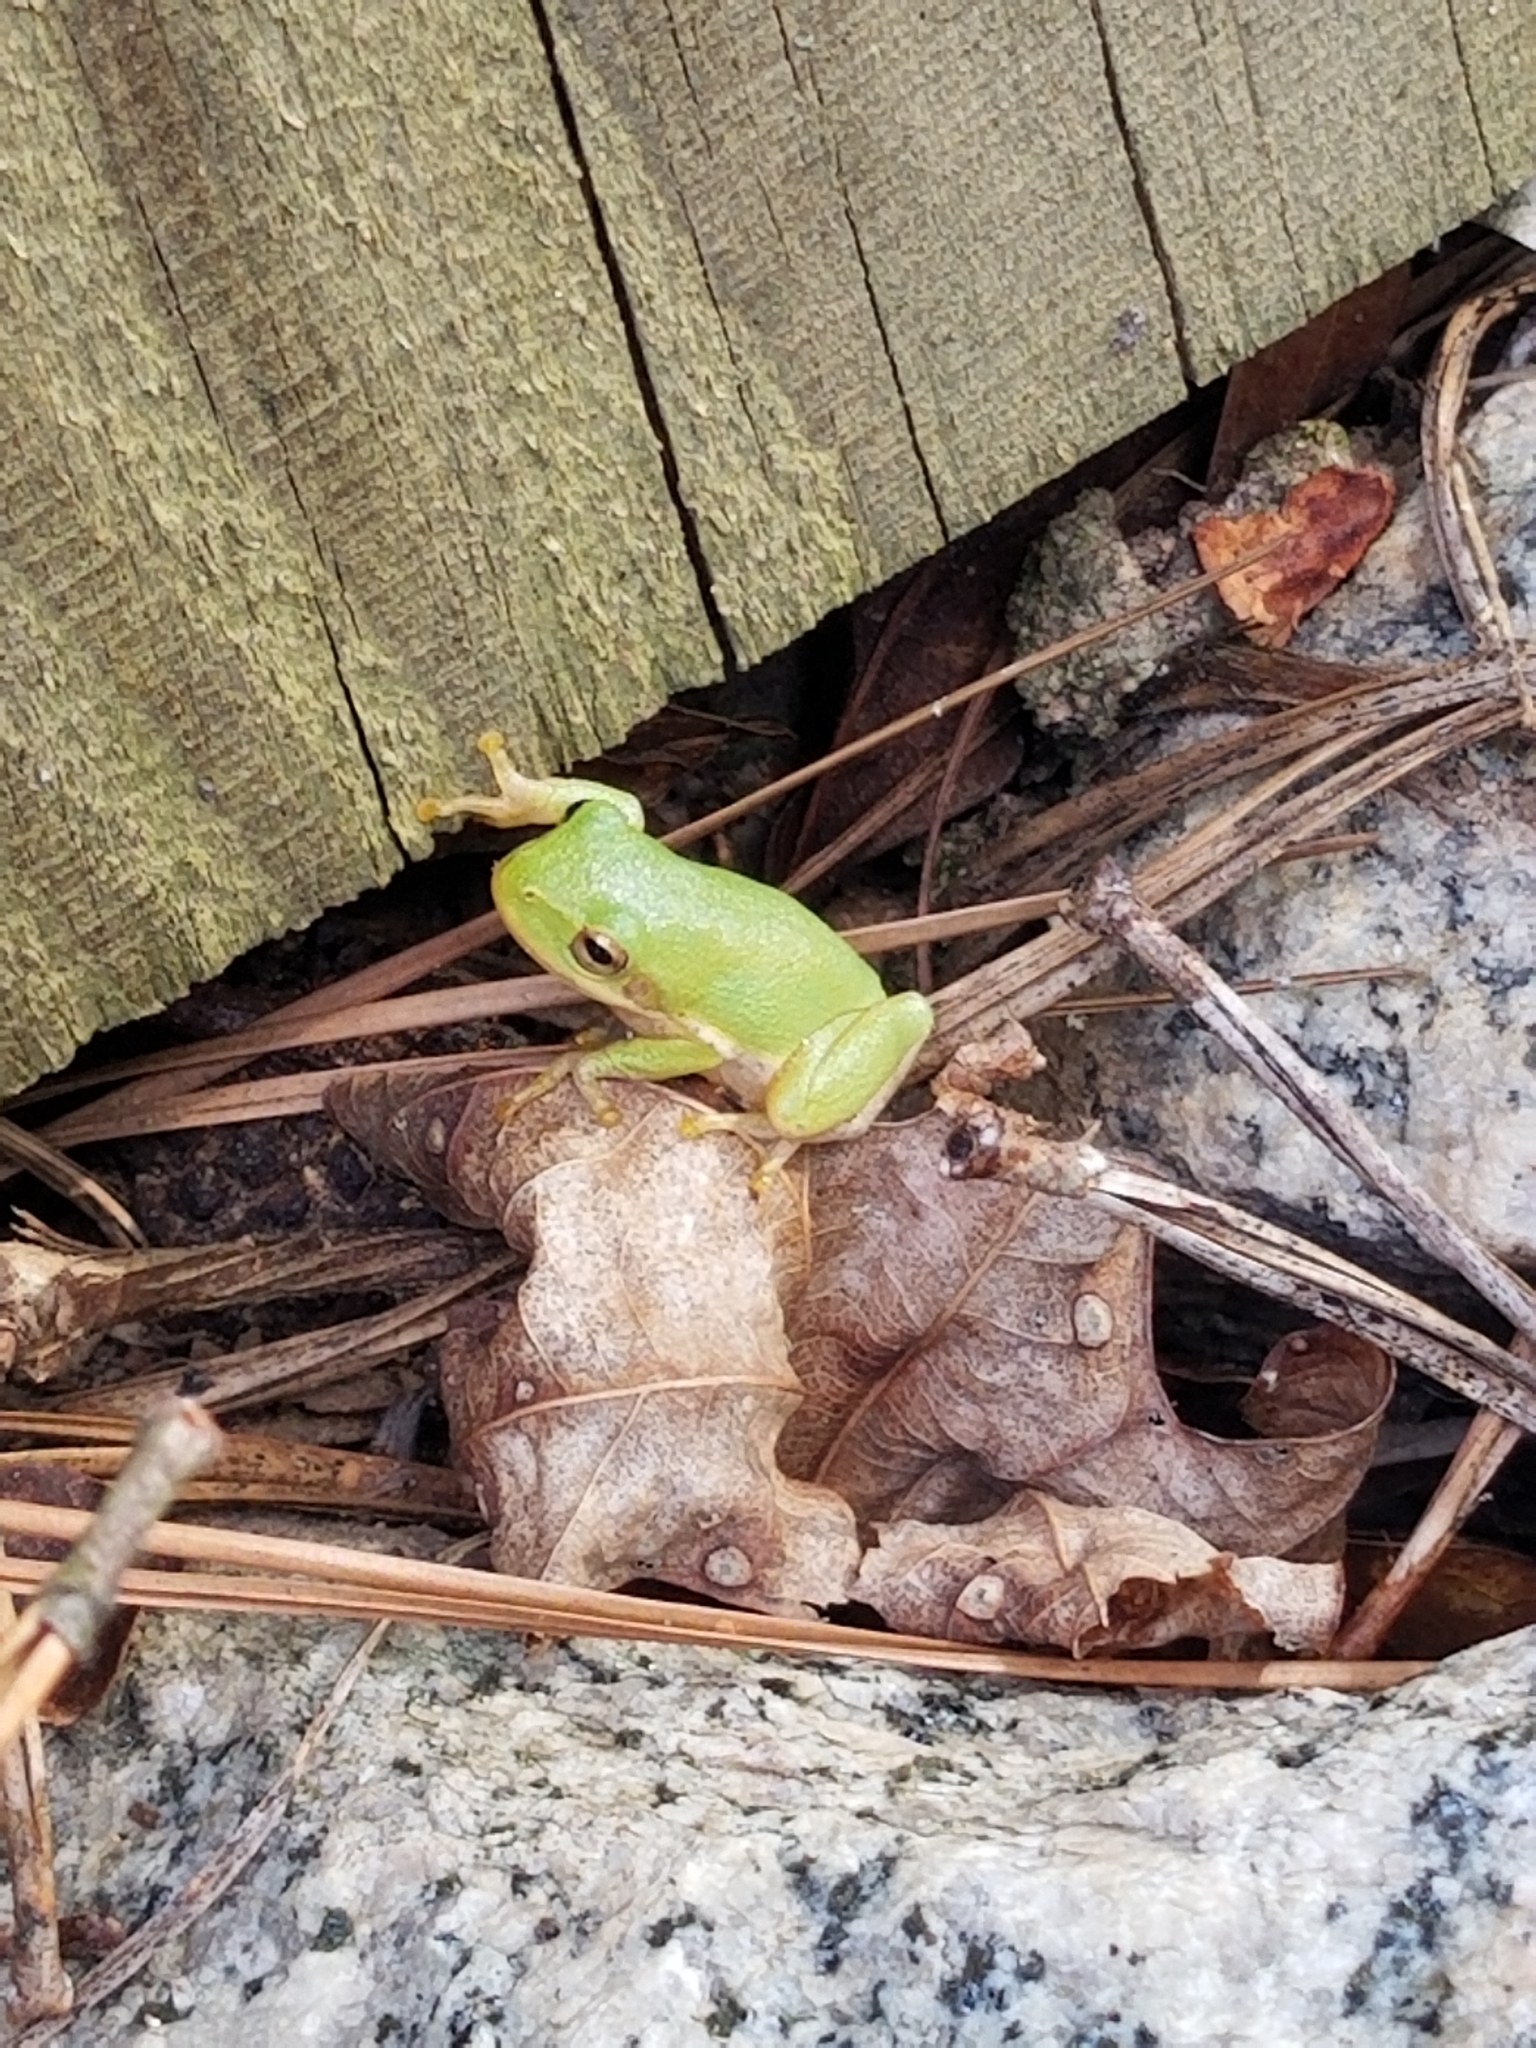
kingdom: Animalia
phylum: Chordata
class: Amphibia
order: Anura
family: Hylidae
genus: Dryophytes
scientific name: Dryophytes squirellus
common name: Squirrel treefrog
